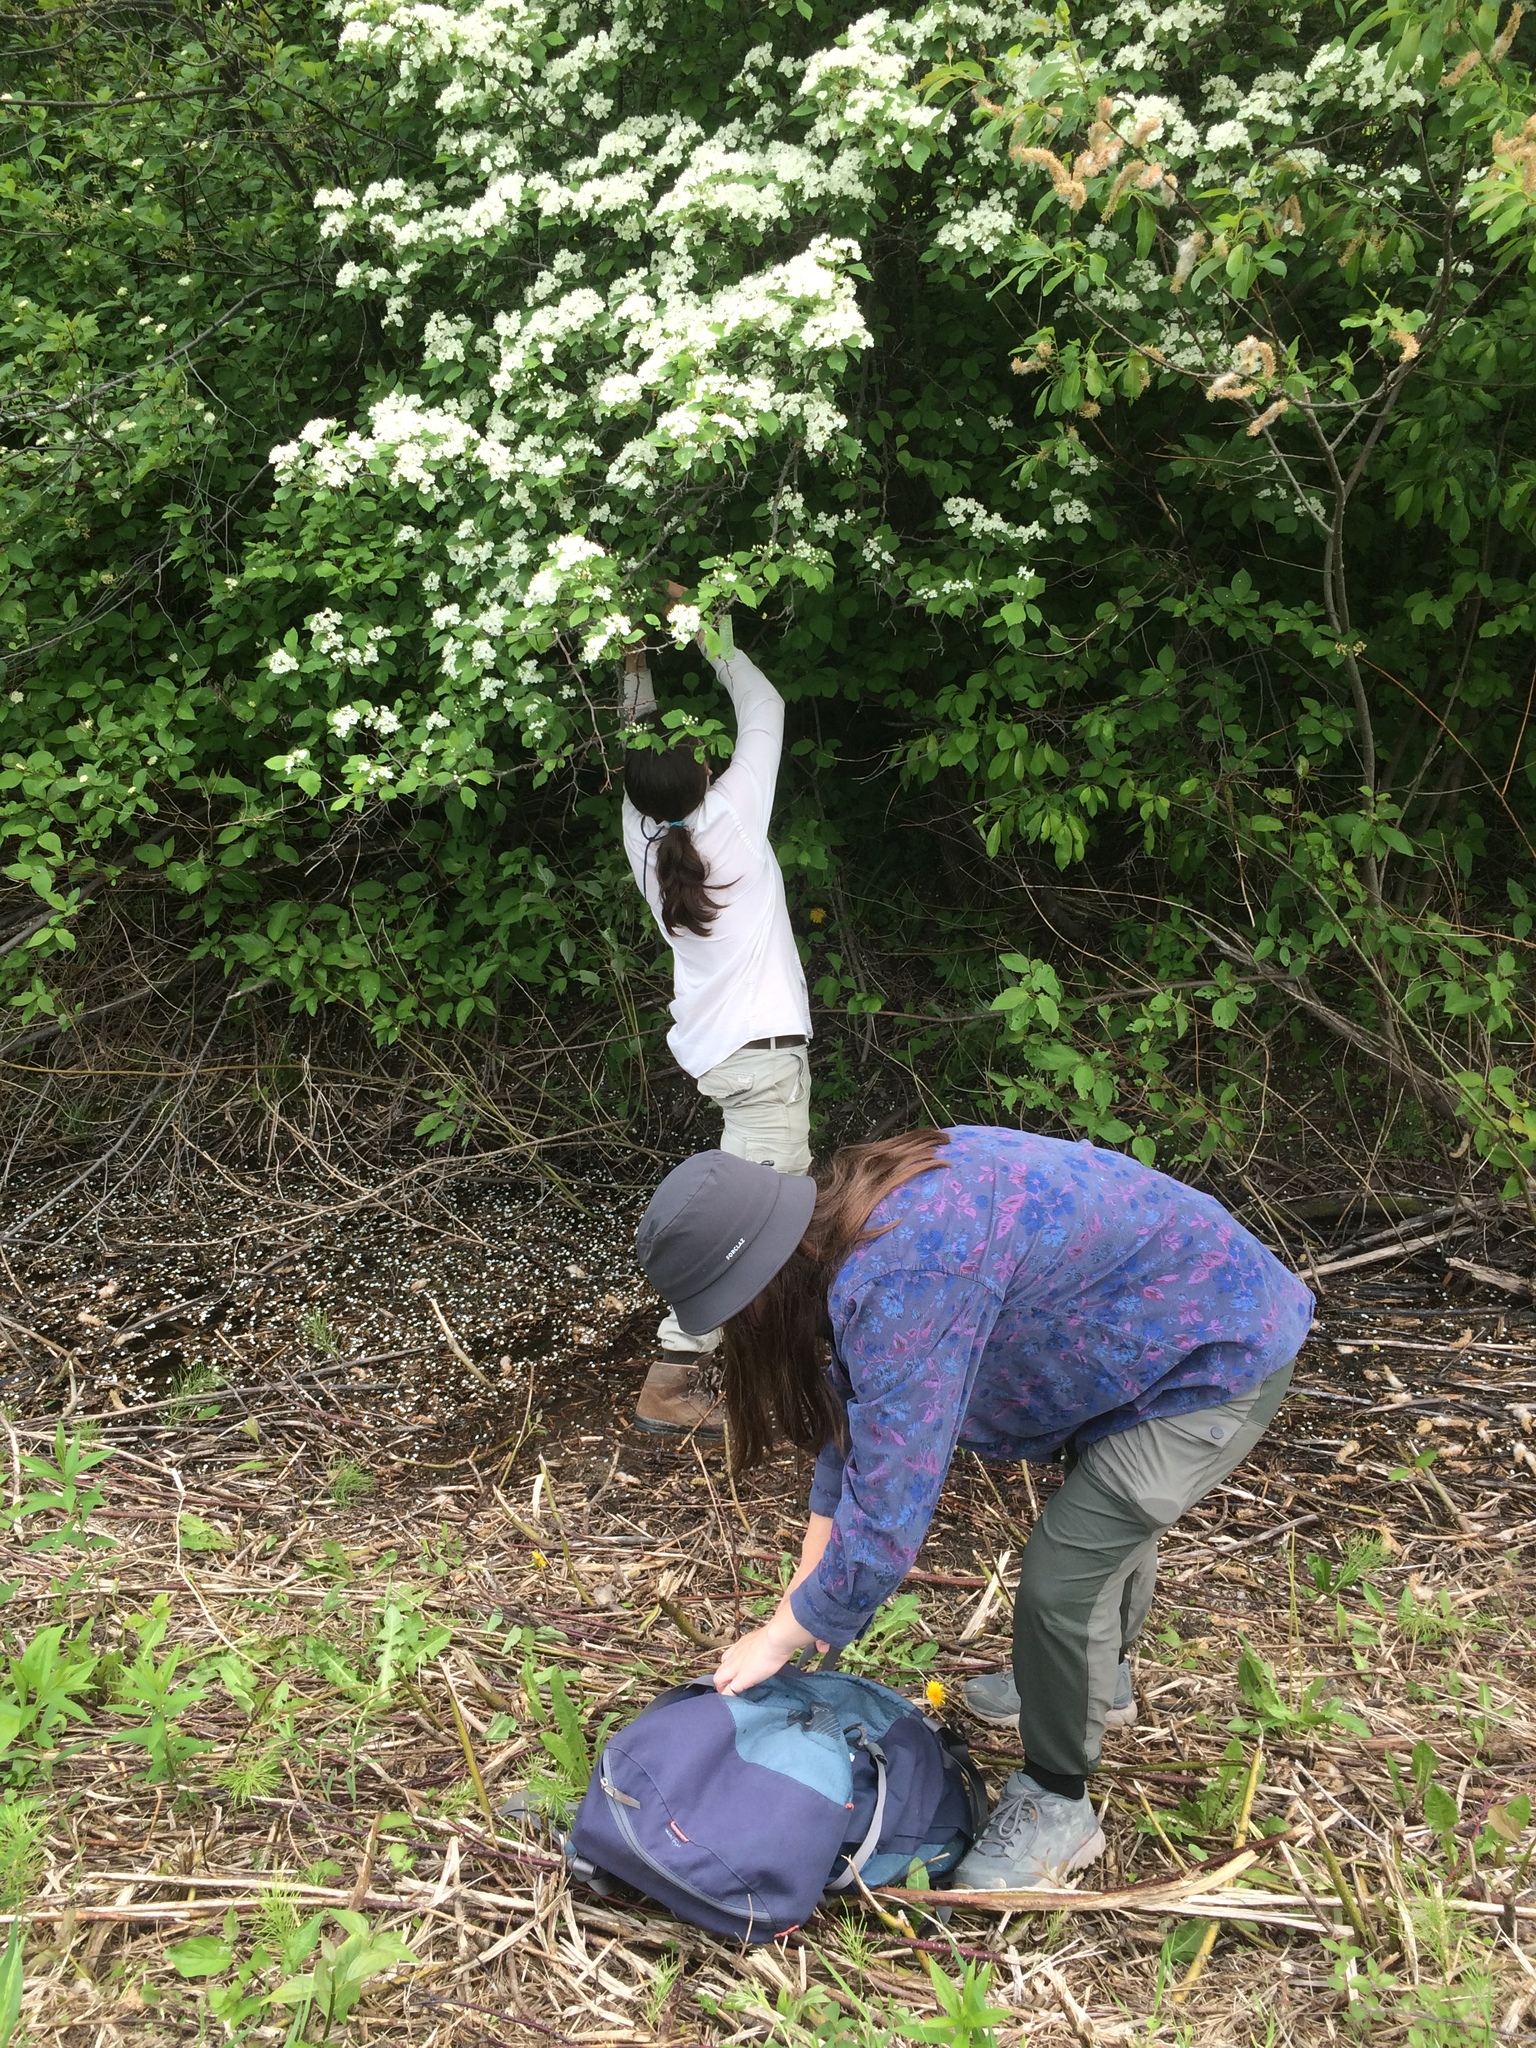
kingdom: Plantae
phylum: Tracheophyta
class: Magnoliopsida
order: Rosales
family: Rosaceae
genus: Crataegus
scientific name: Crataegus macracantha
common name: Large-thorn hawthorn
